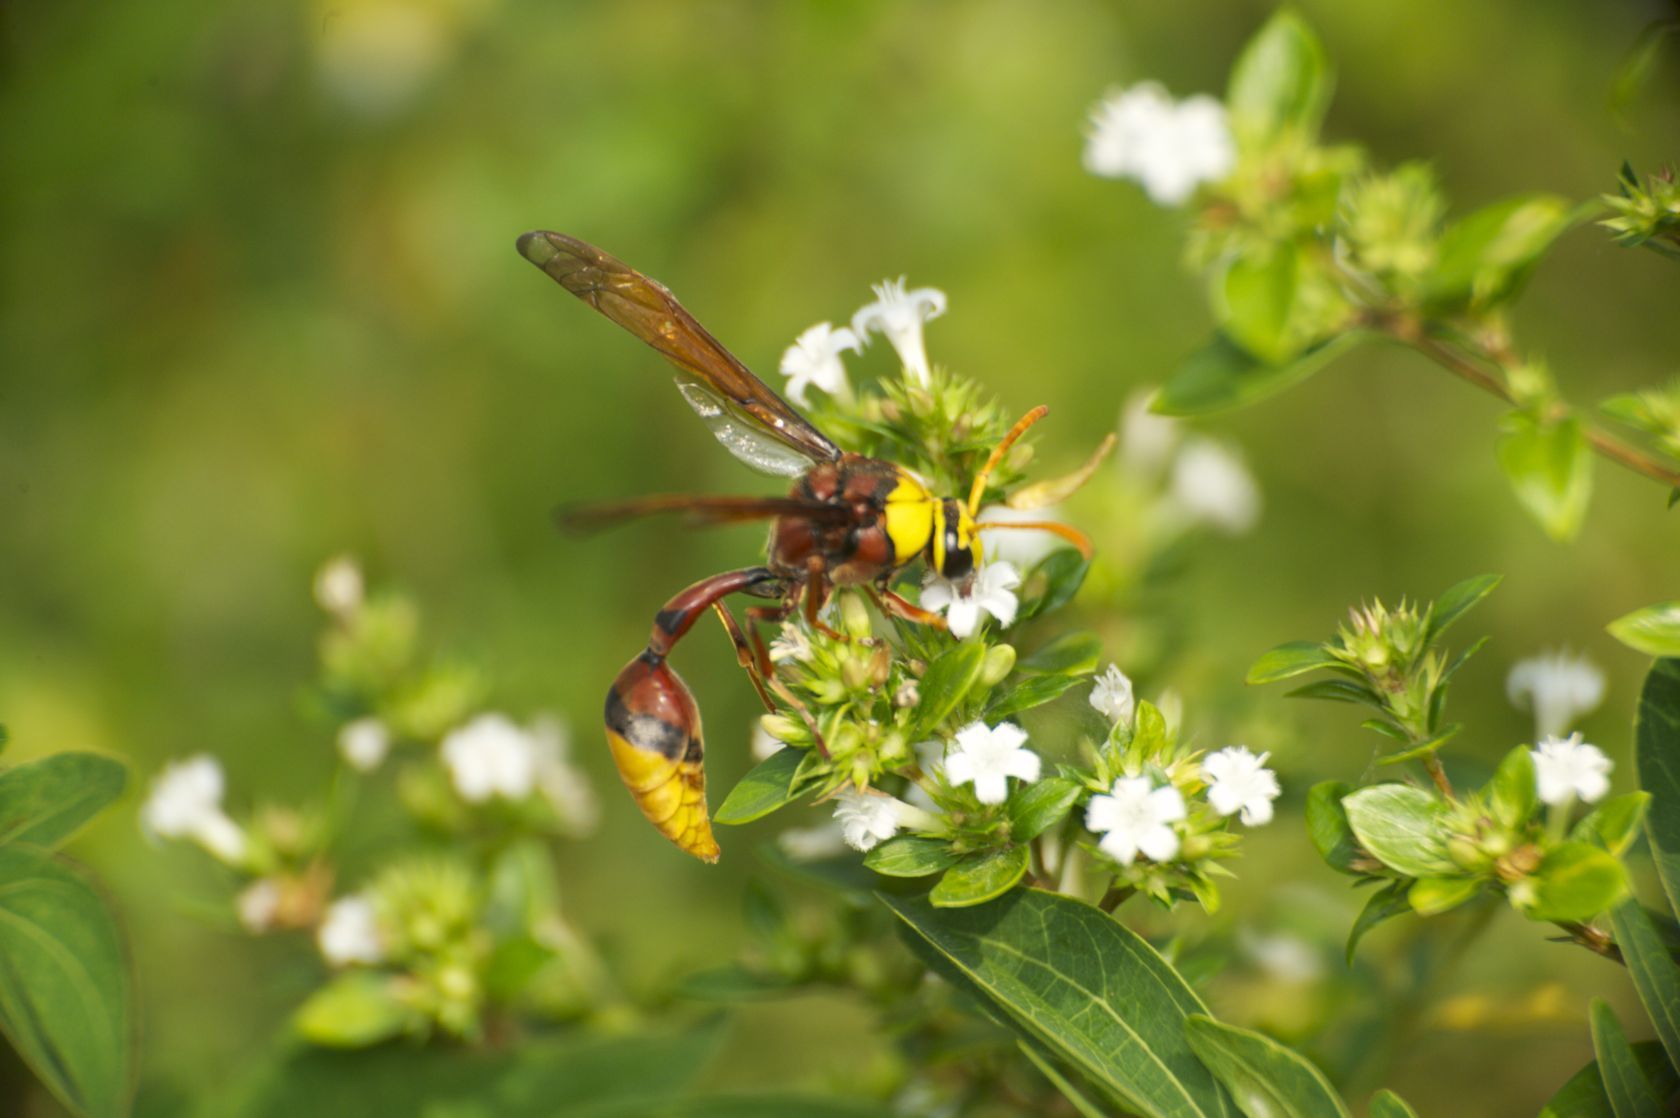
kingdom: Animalia
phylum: Arthropoda
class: Insecta
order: Hymenoptera
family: Eumenidae
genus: Delta
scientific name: Delta pyriforme
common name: Wasp
